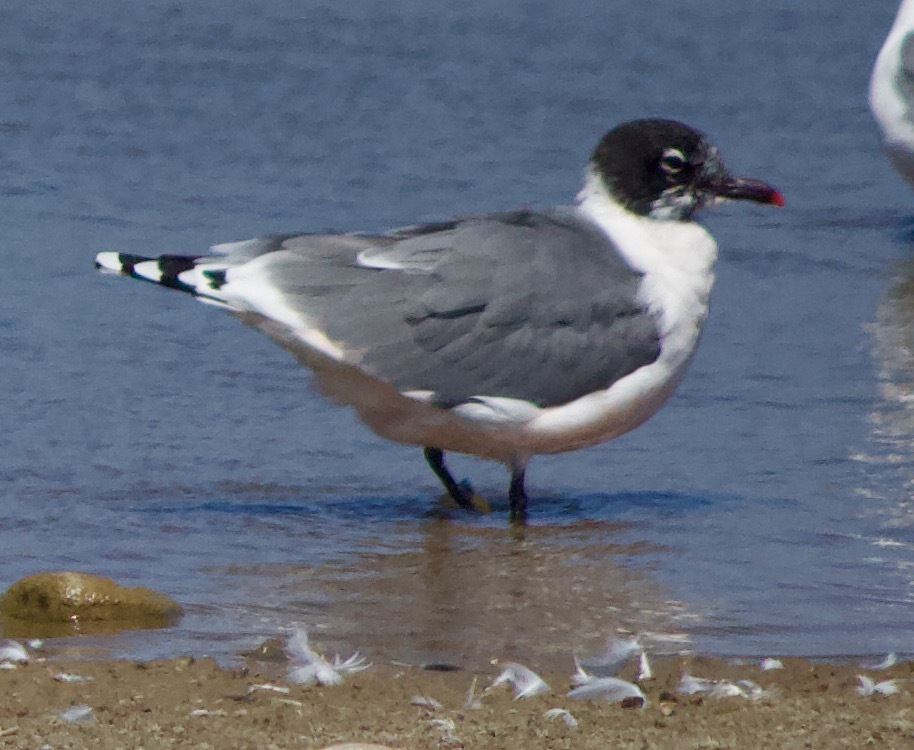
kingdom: Animalia
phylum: Chordata
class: Aves
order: Charadriiformes
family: Laridae
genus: Leucophaeus
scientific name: Leucophaeus pipixcan
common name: Franklin's gull
